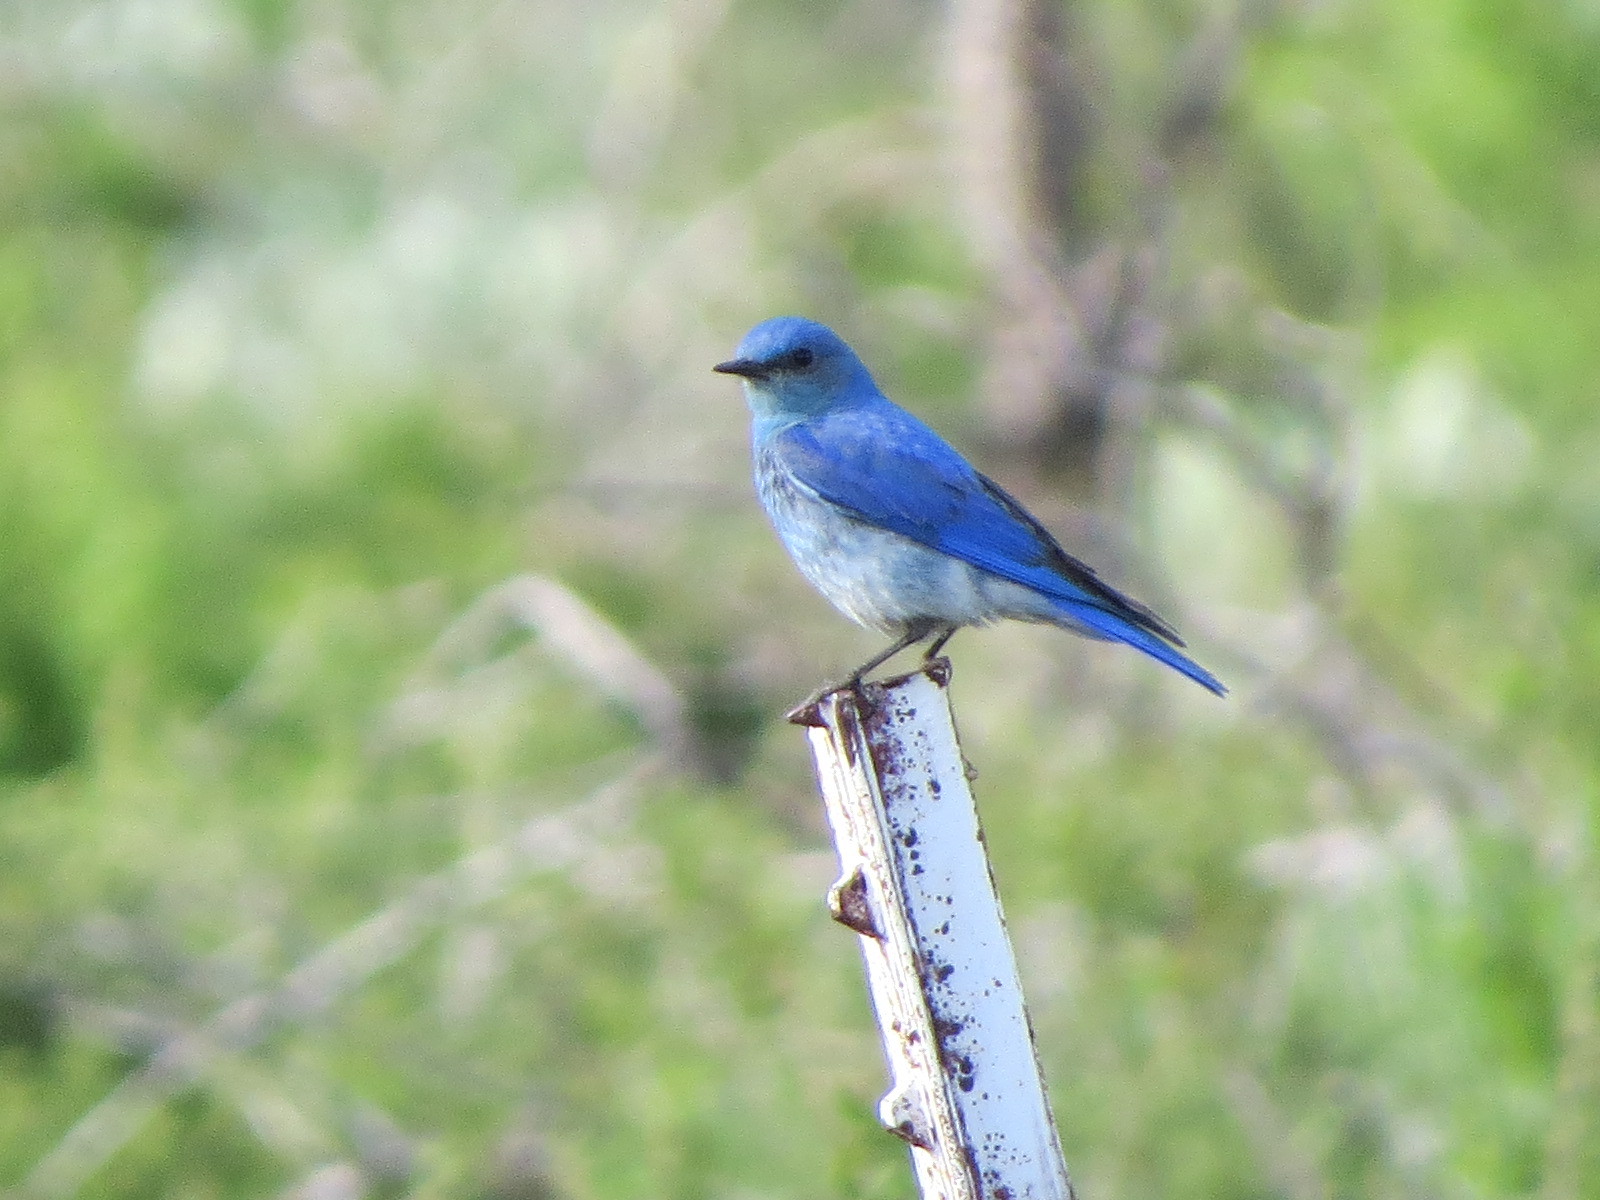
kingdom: Animalia
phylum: Chordata
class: Aves
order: Passeriformes
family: Turdidae
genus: Sialia
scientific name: Sialia currucoides
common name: Mountain bluebird
